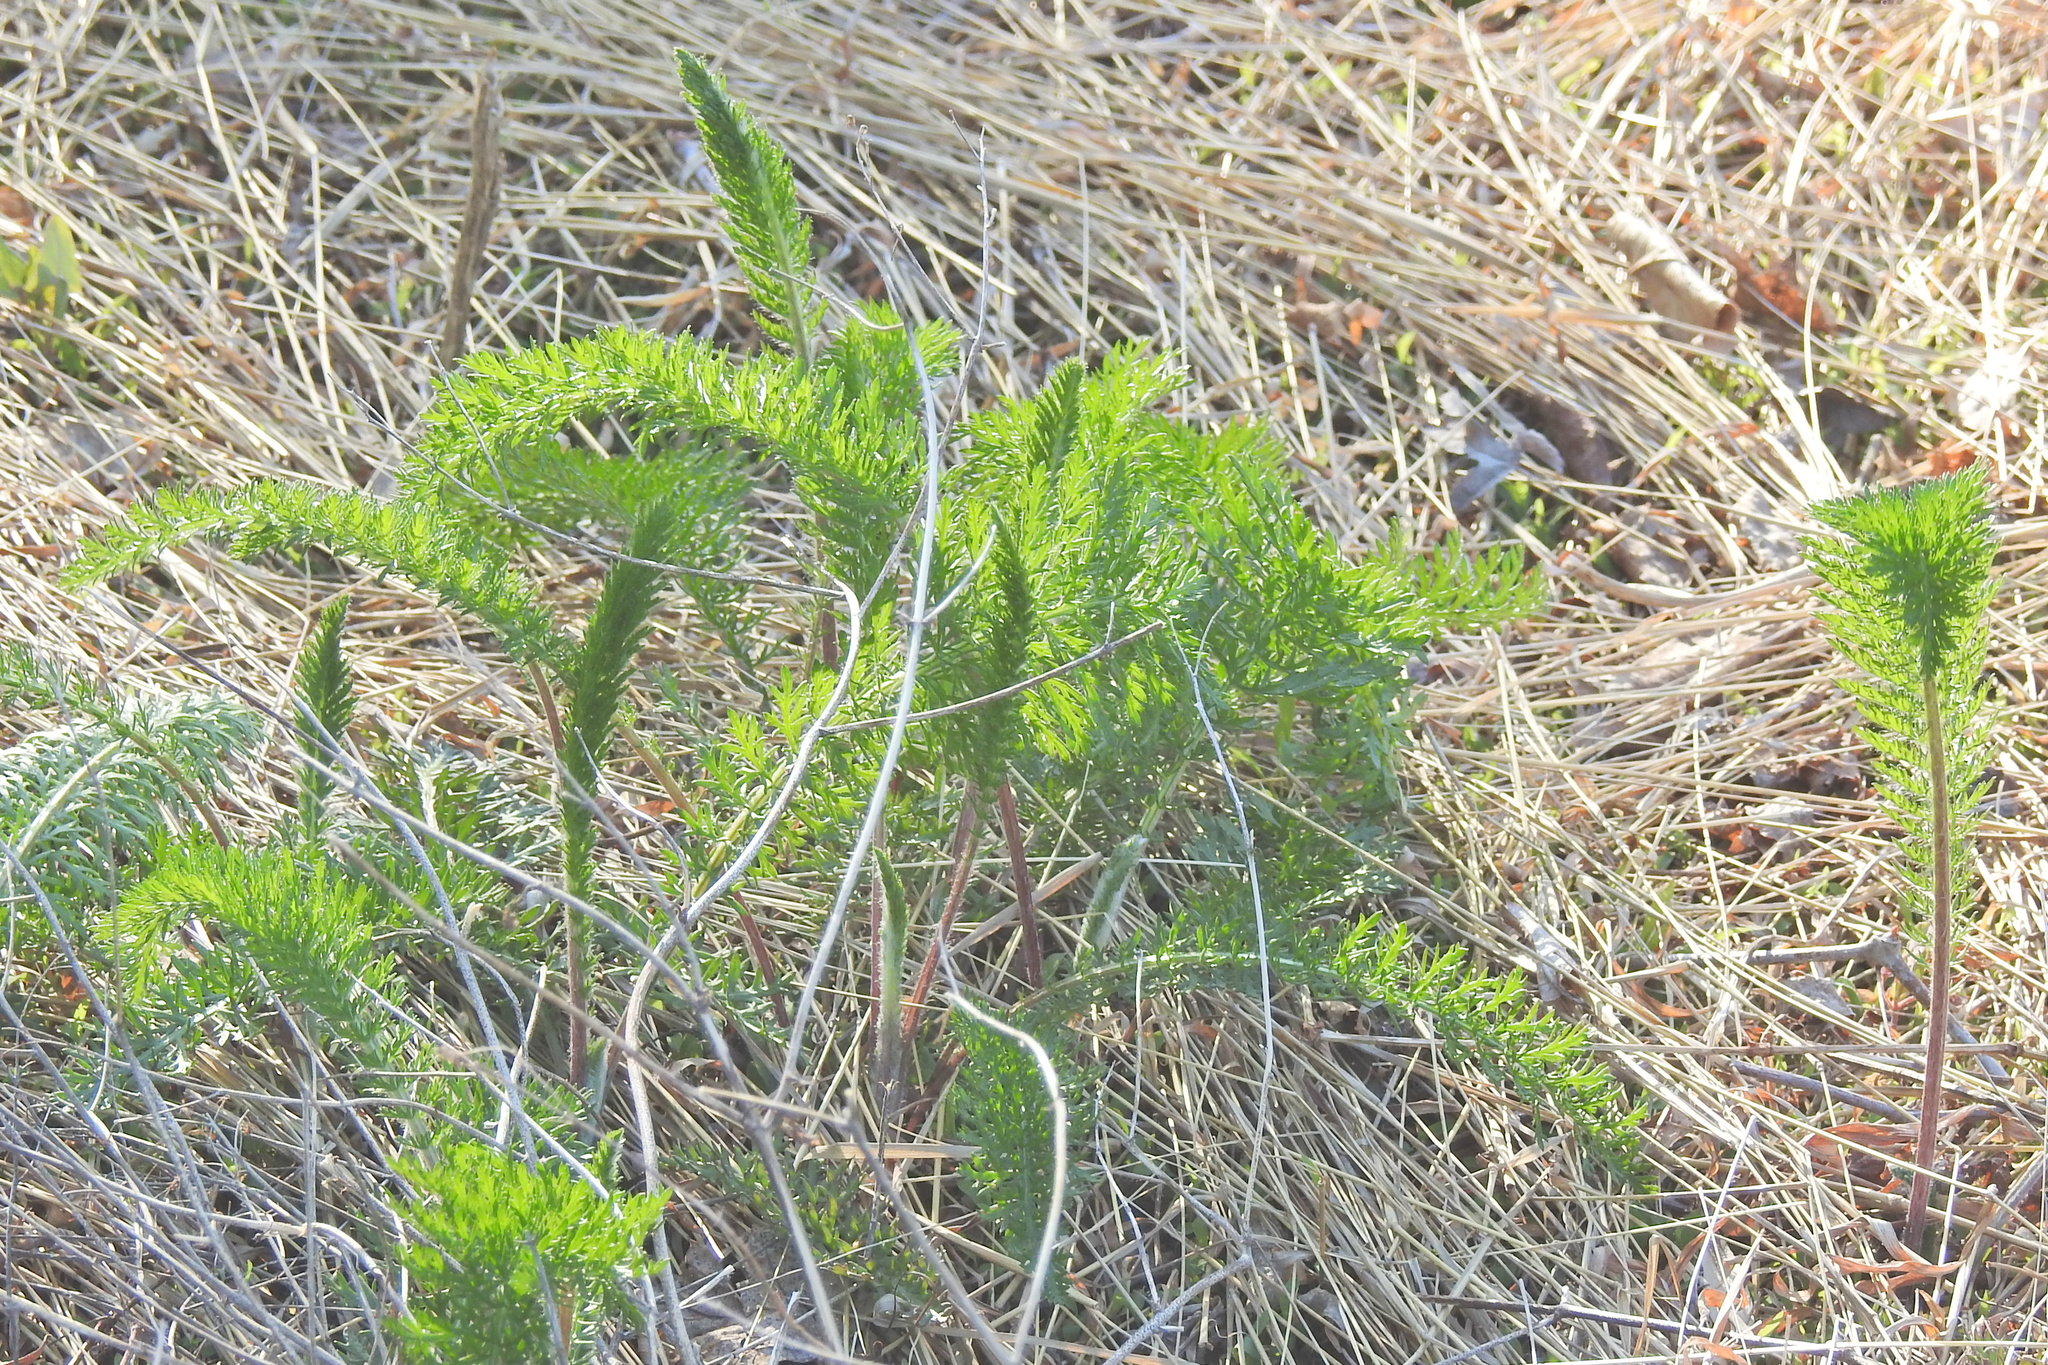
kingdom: Plantae
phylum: Tracheophyta
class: Magnoliopsida
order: Asterales
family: Asteraceae
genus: Achillea
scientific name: Achillea millefolium
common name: Yarrow
